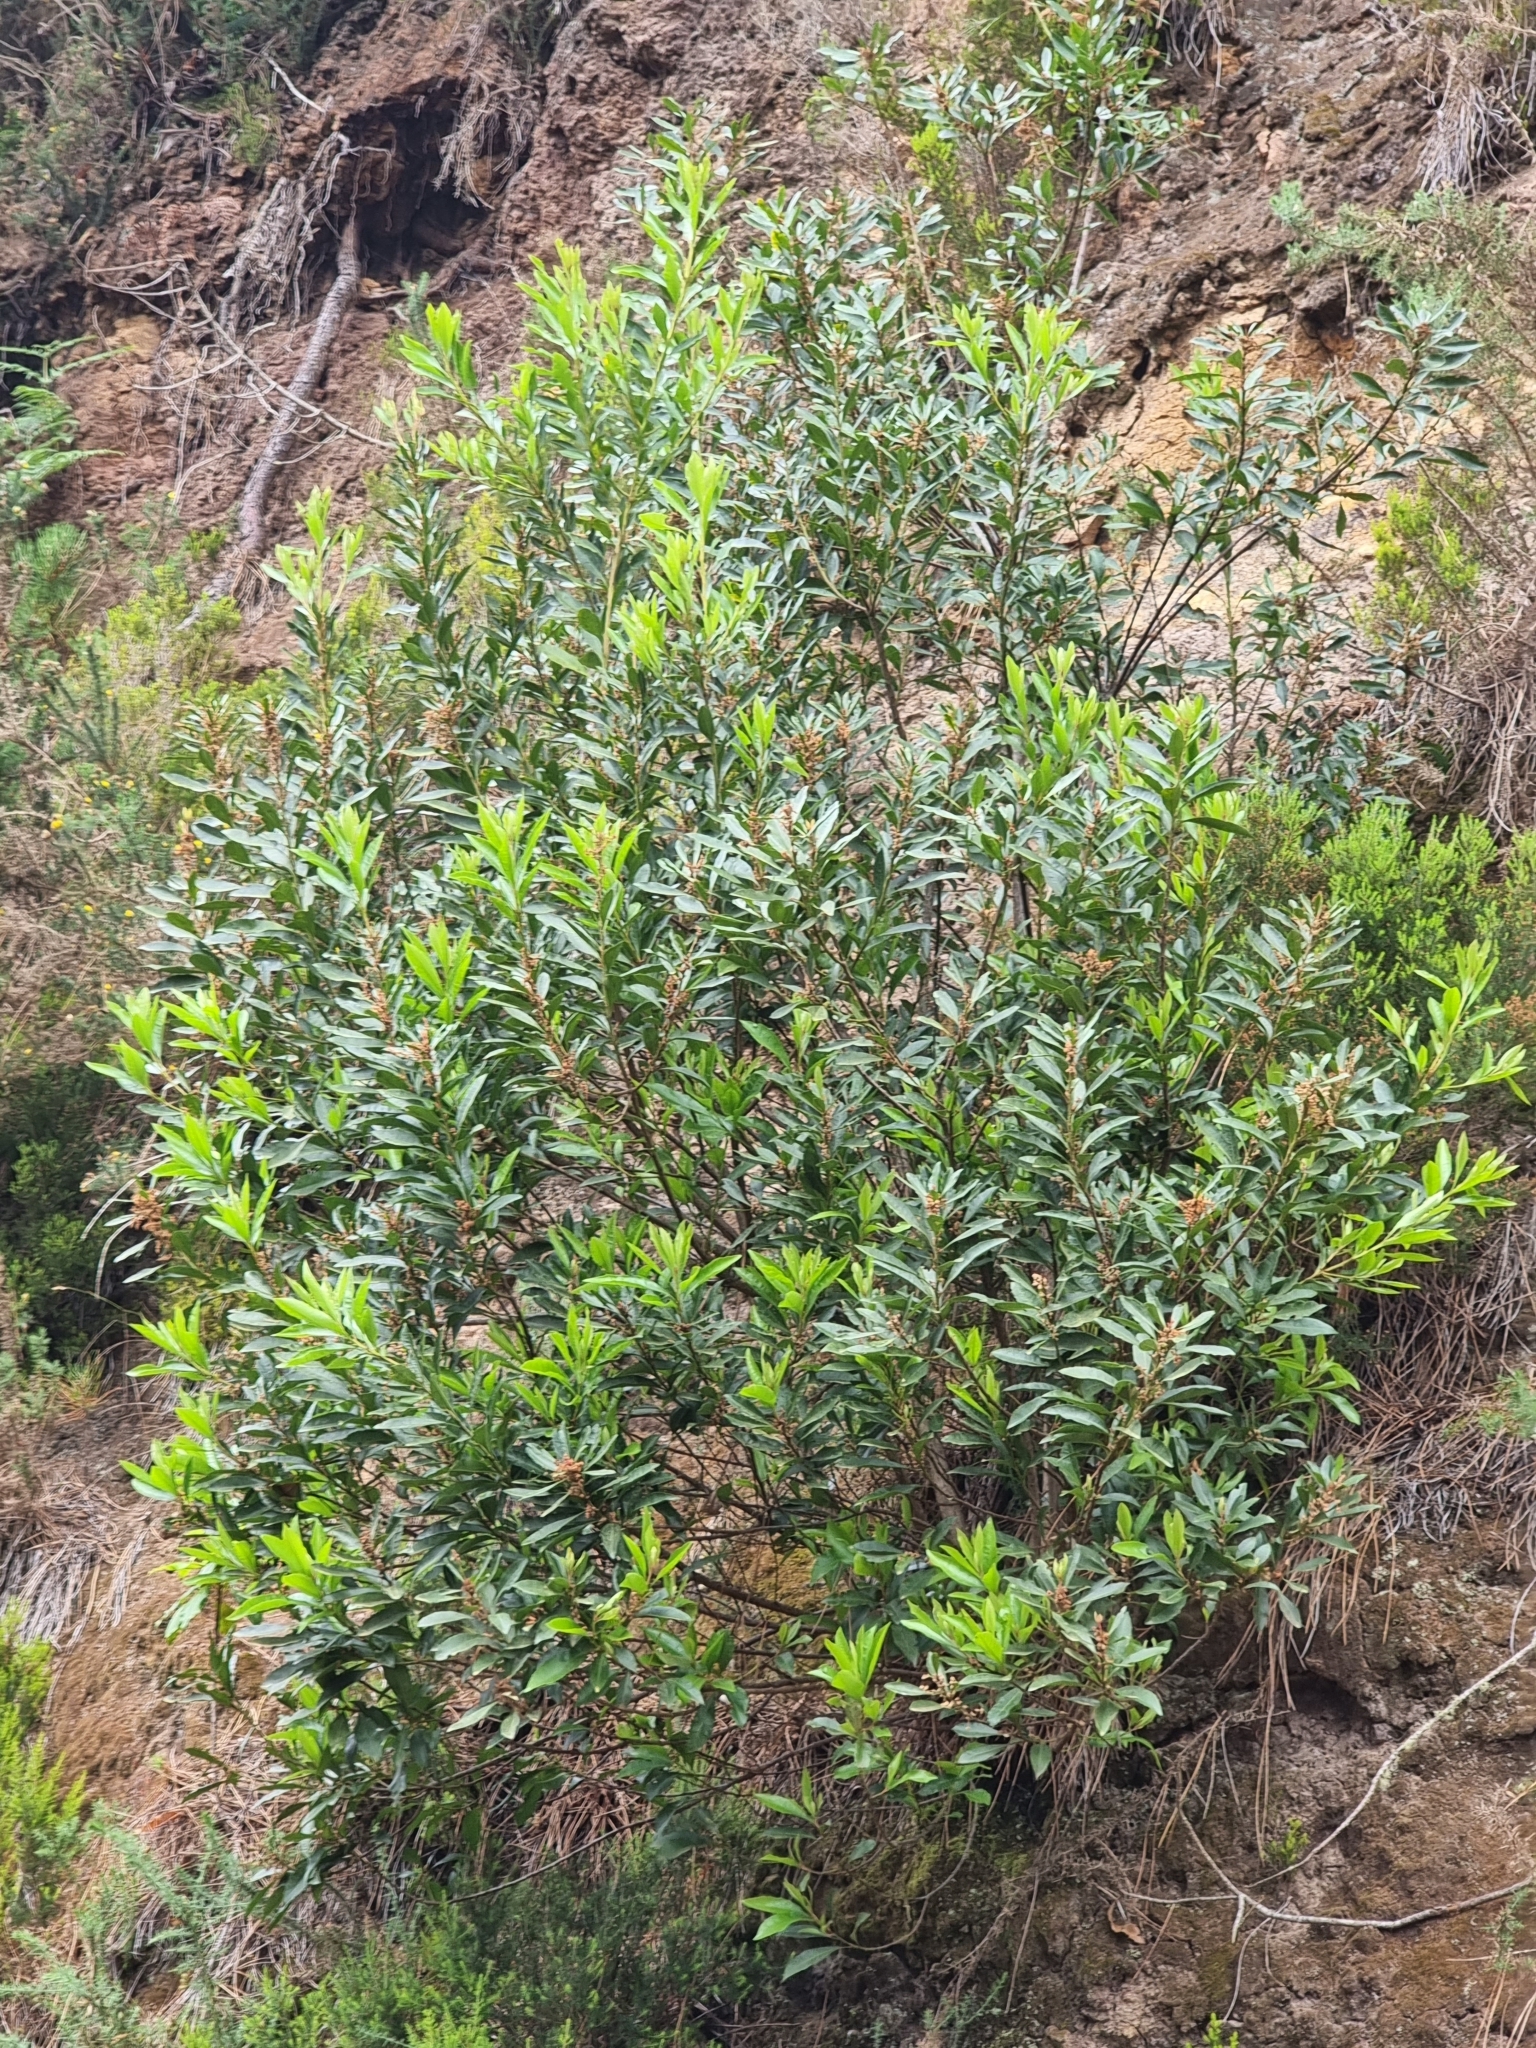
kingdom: Plantae
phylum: Tracheophyta
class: Magnoliopsida
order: Fagales
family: Myricaceae
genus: Morella
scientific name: Morella faya
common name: Firetree
